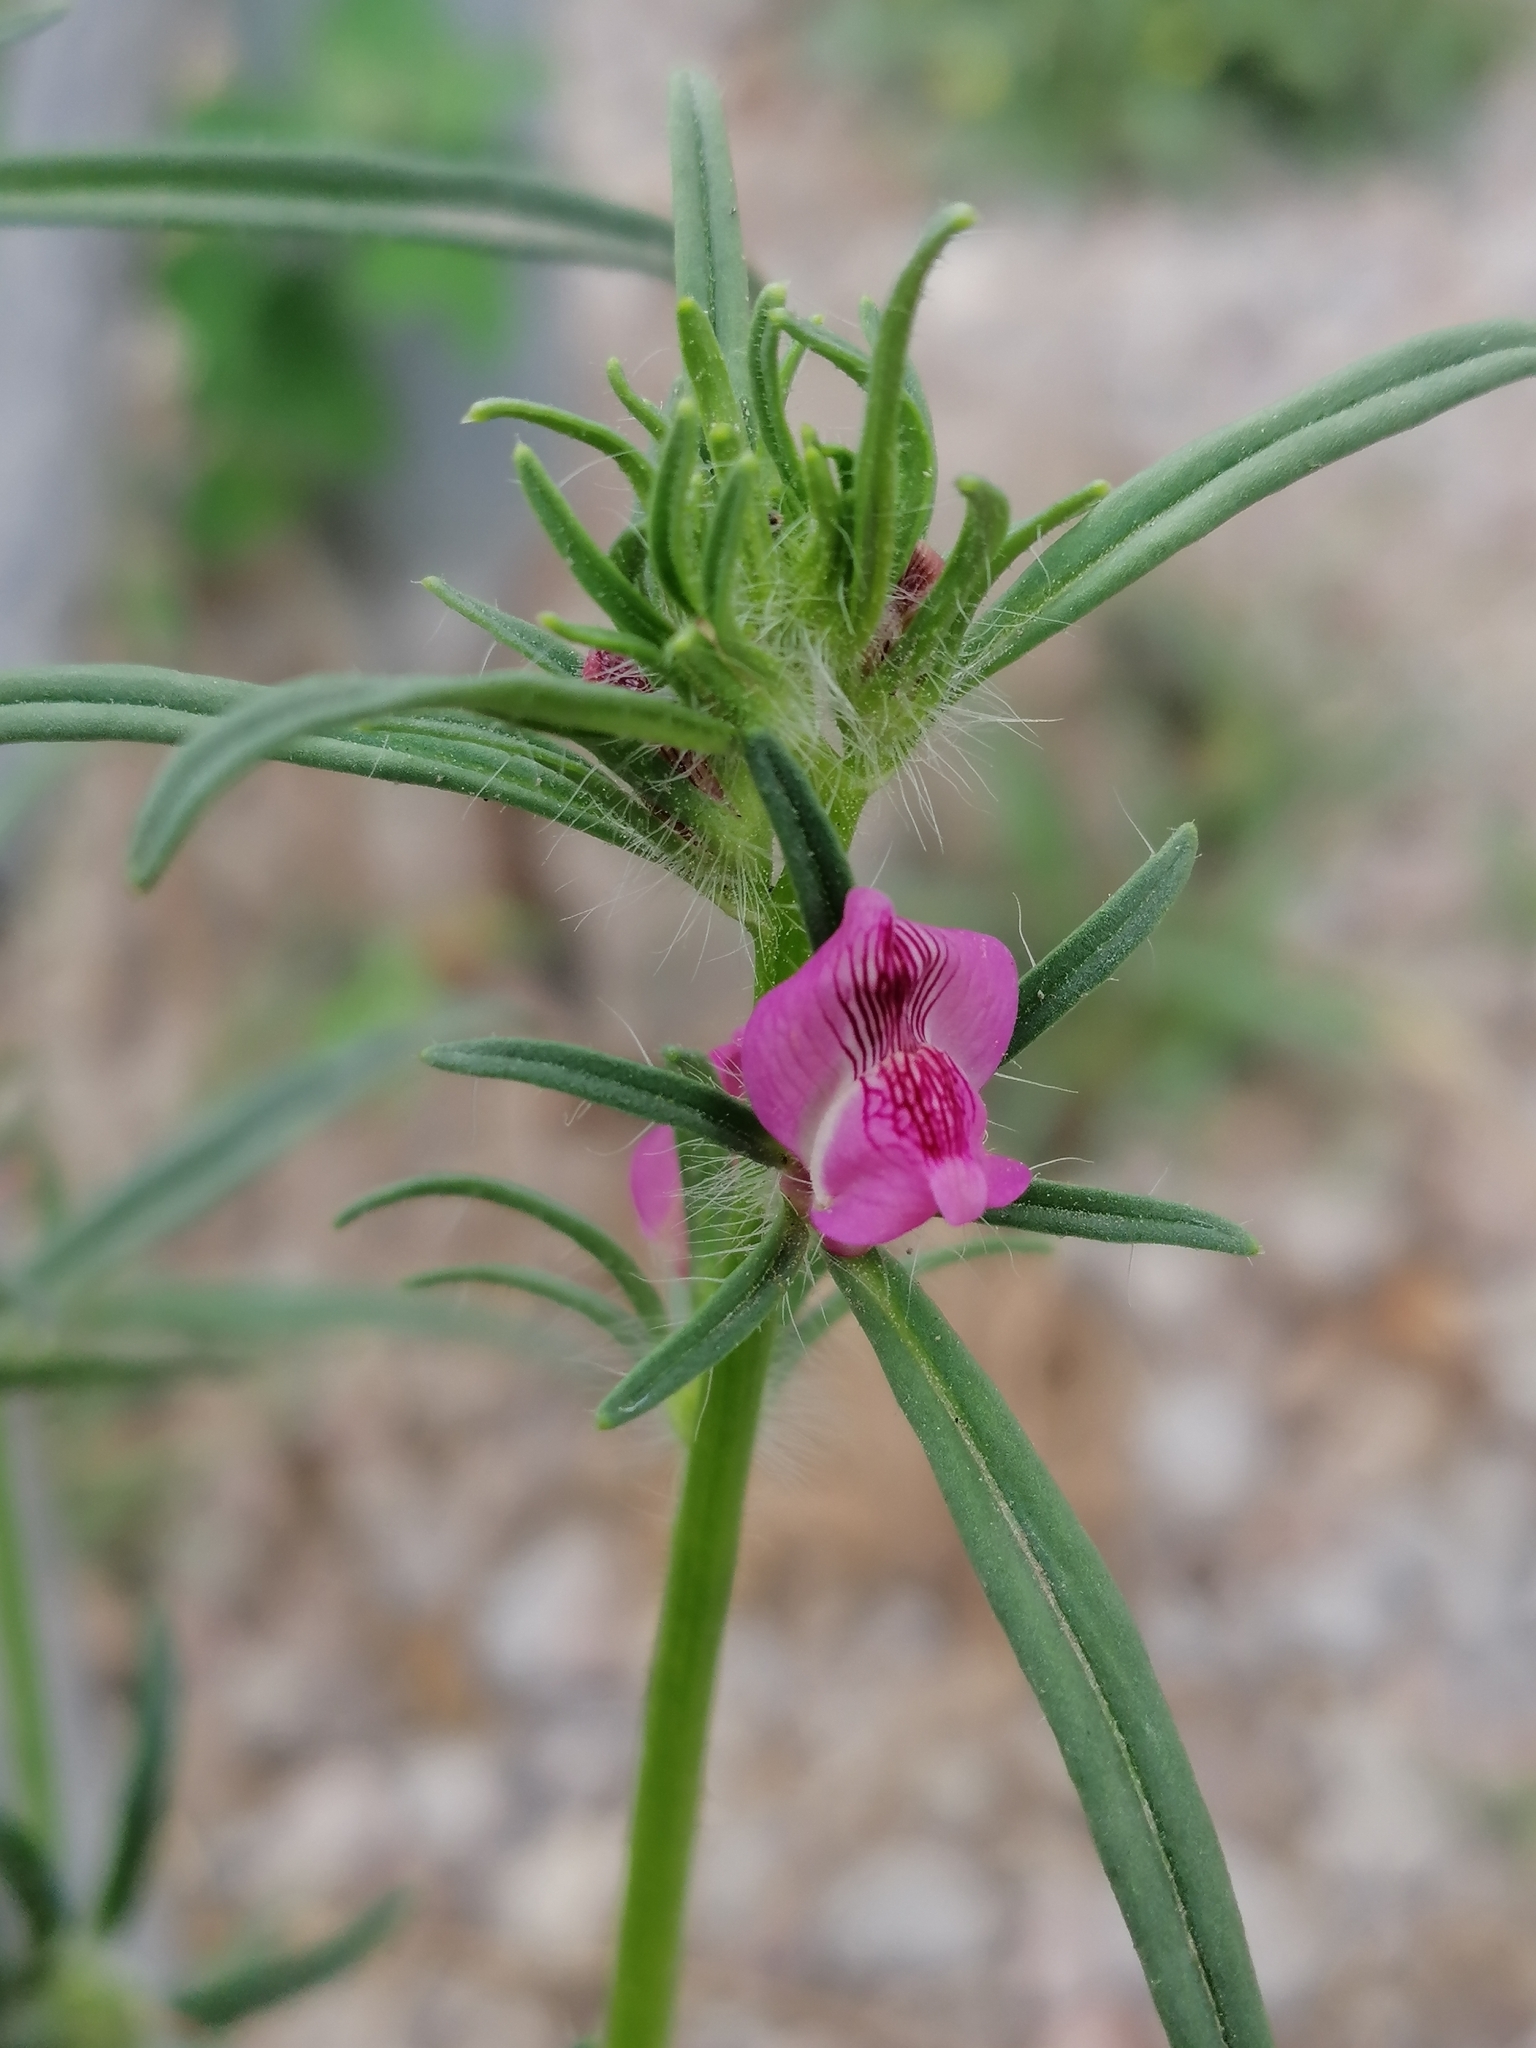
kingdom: Plantae
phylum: Tracheophyta
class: Magnoliopsida
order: Lamiales
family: Plantaginaceae
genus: Misopates
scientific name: Misopates orontium
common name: Weasel's-snout
